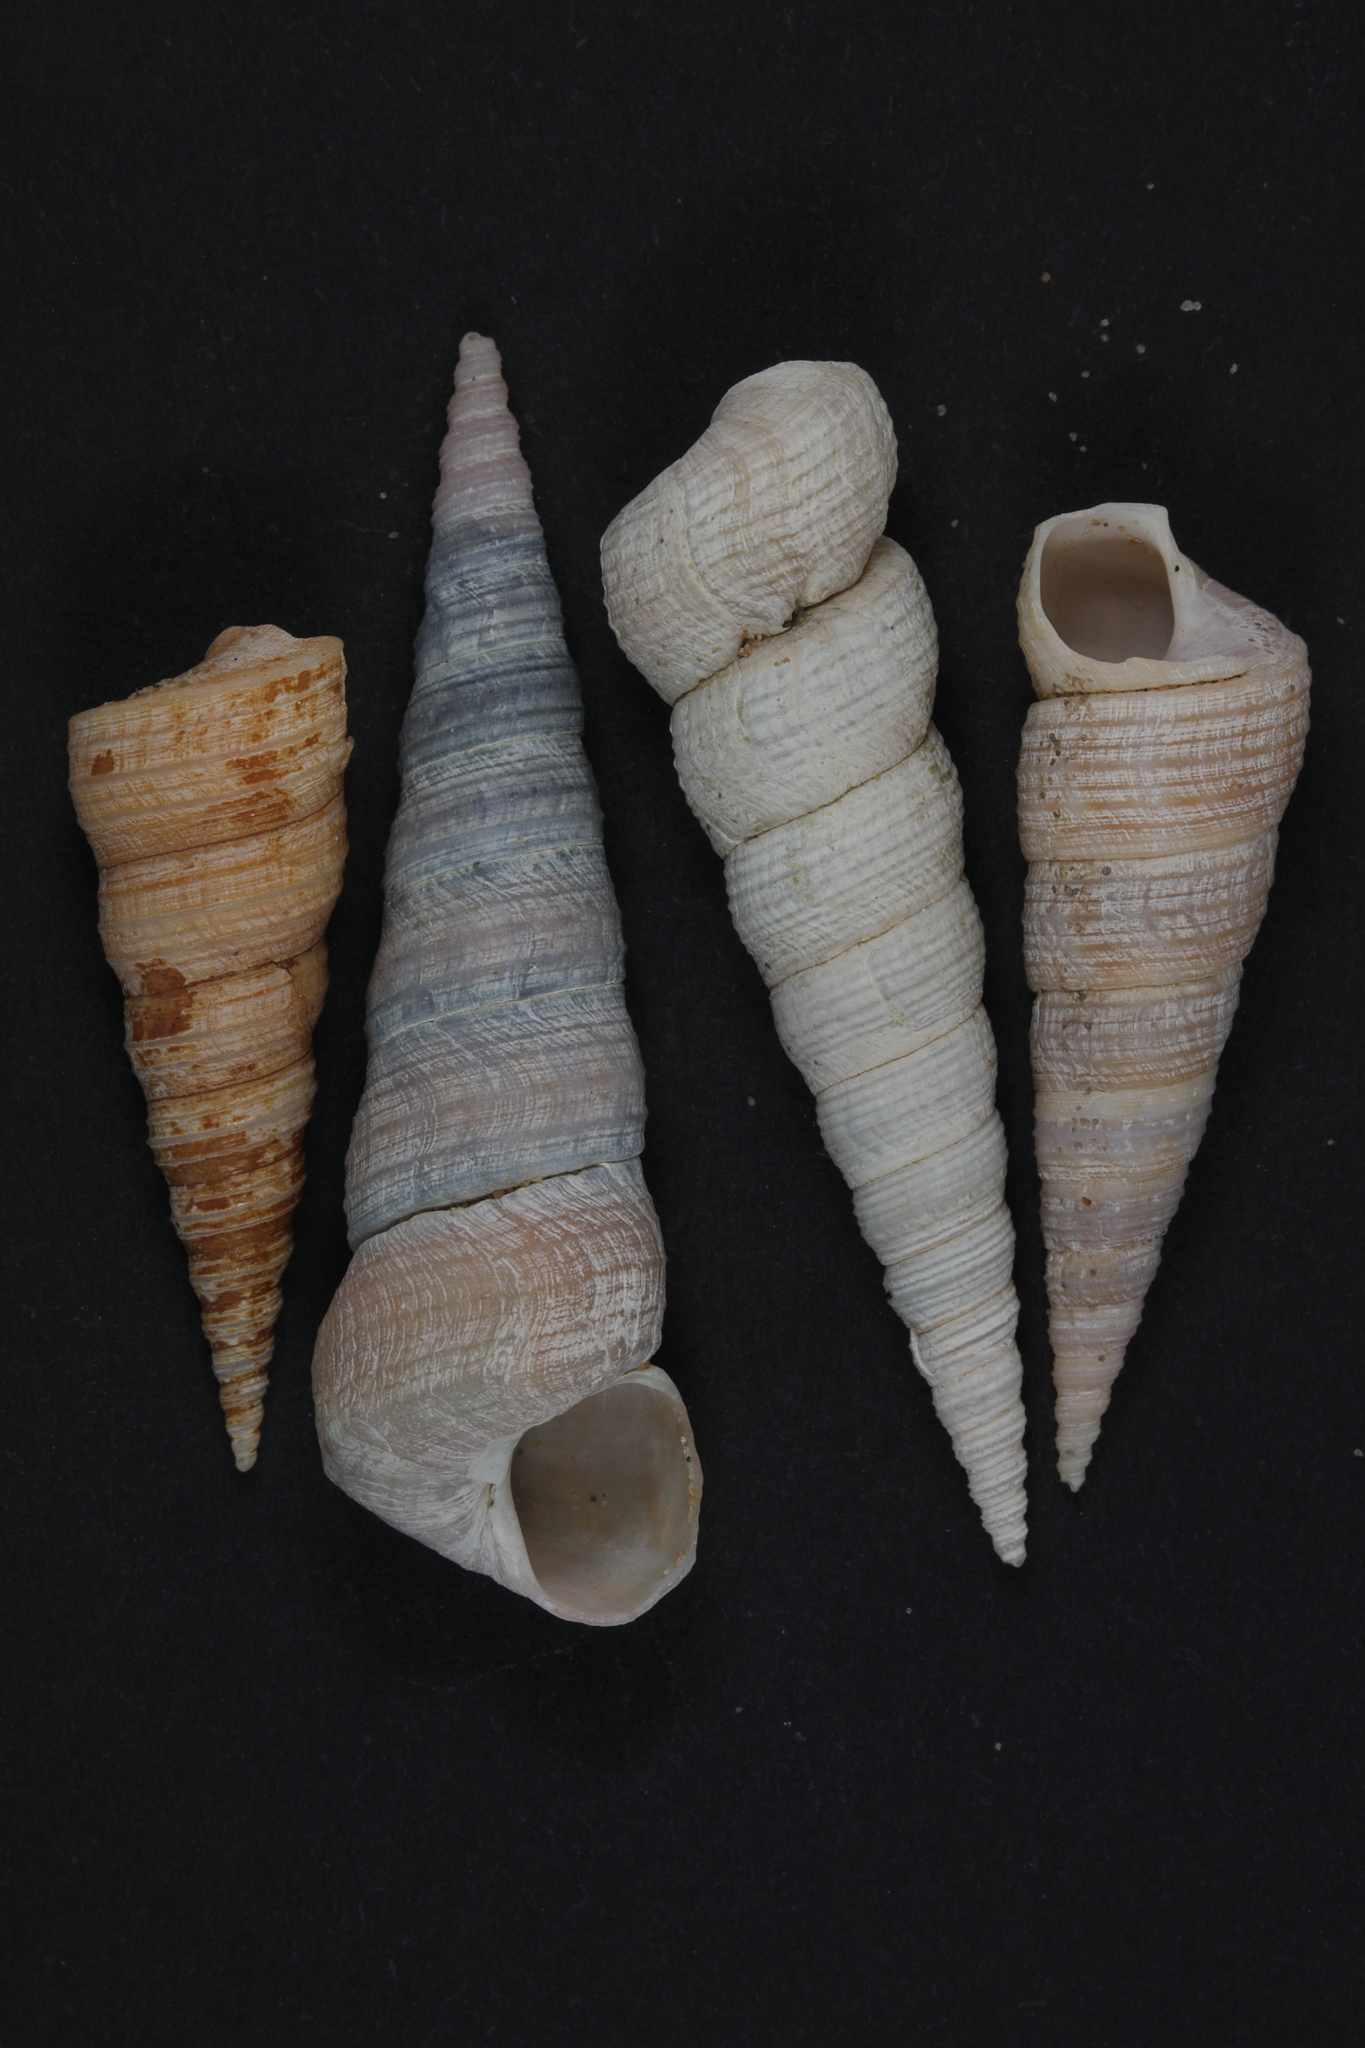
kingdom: Animalia
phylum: Mollusca
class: Gastropoda
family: Turritellidae
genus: Turritellinella
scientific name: Turritellinella tricarinata
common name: Auger shell
